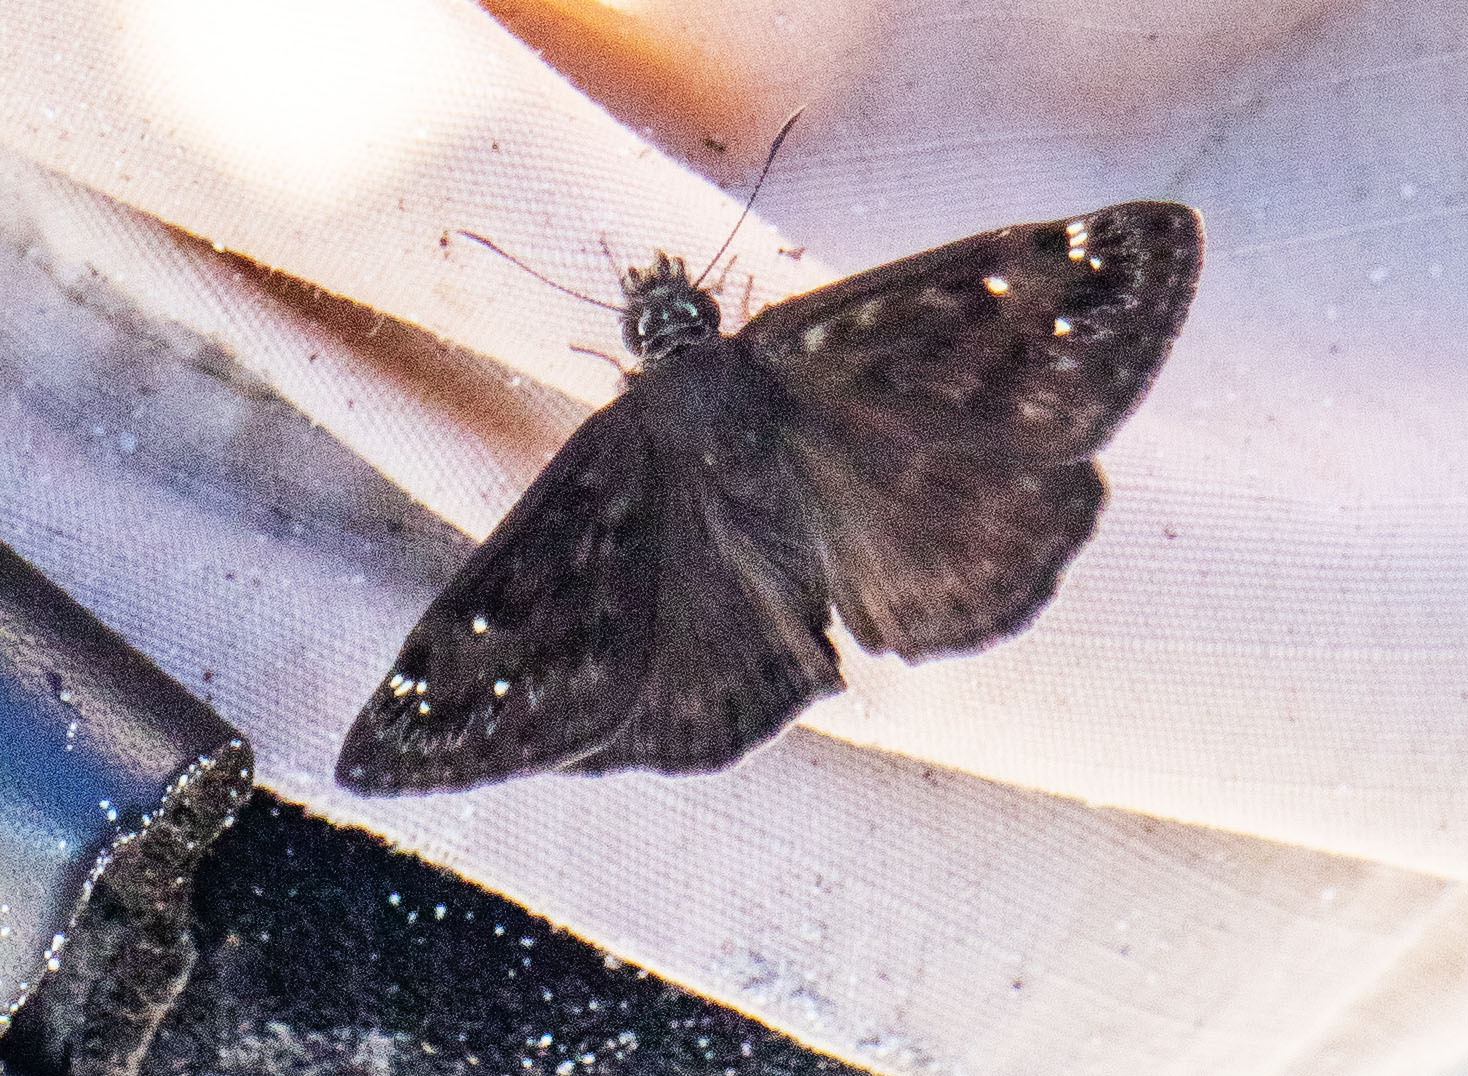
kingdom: Animalia
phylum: Arthropoda
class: Insecta
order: Lepidoptera
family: Hesperiidae
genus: Erynnis
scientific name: Erynnis horatius
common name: Horace's duskywing
